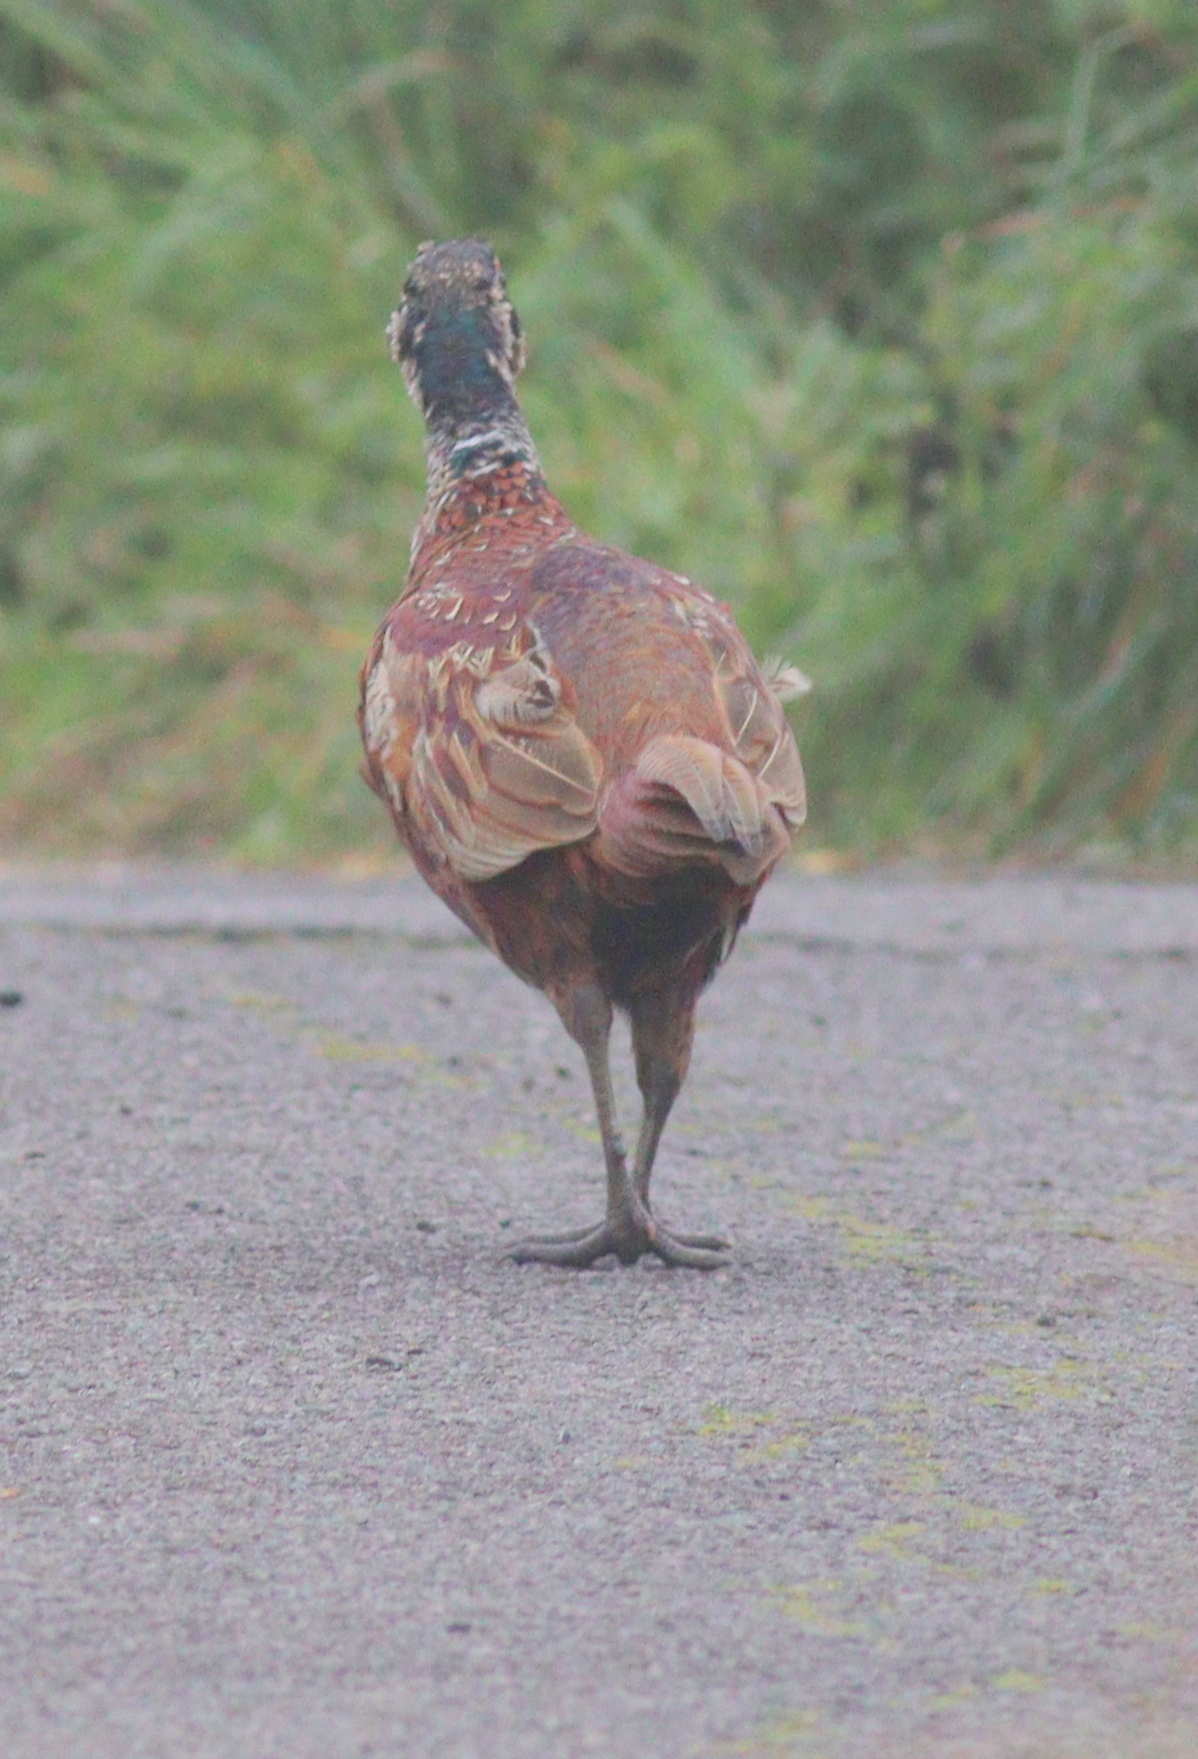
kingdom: Animalia
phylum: Chordata
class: Aves
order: Galliformes
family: Phasianidae
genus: Phasianus
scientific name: Phasianus colchicus
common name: Common pheasant
